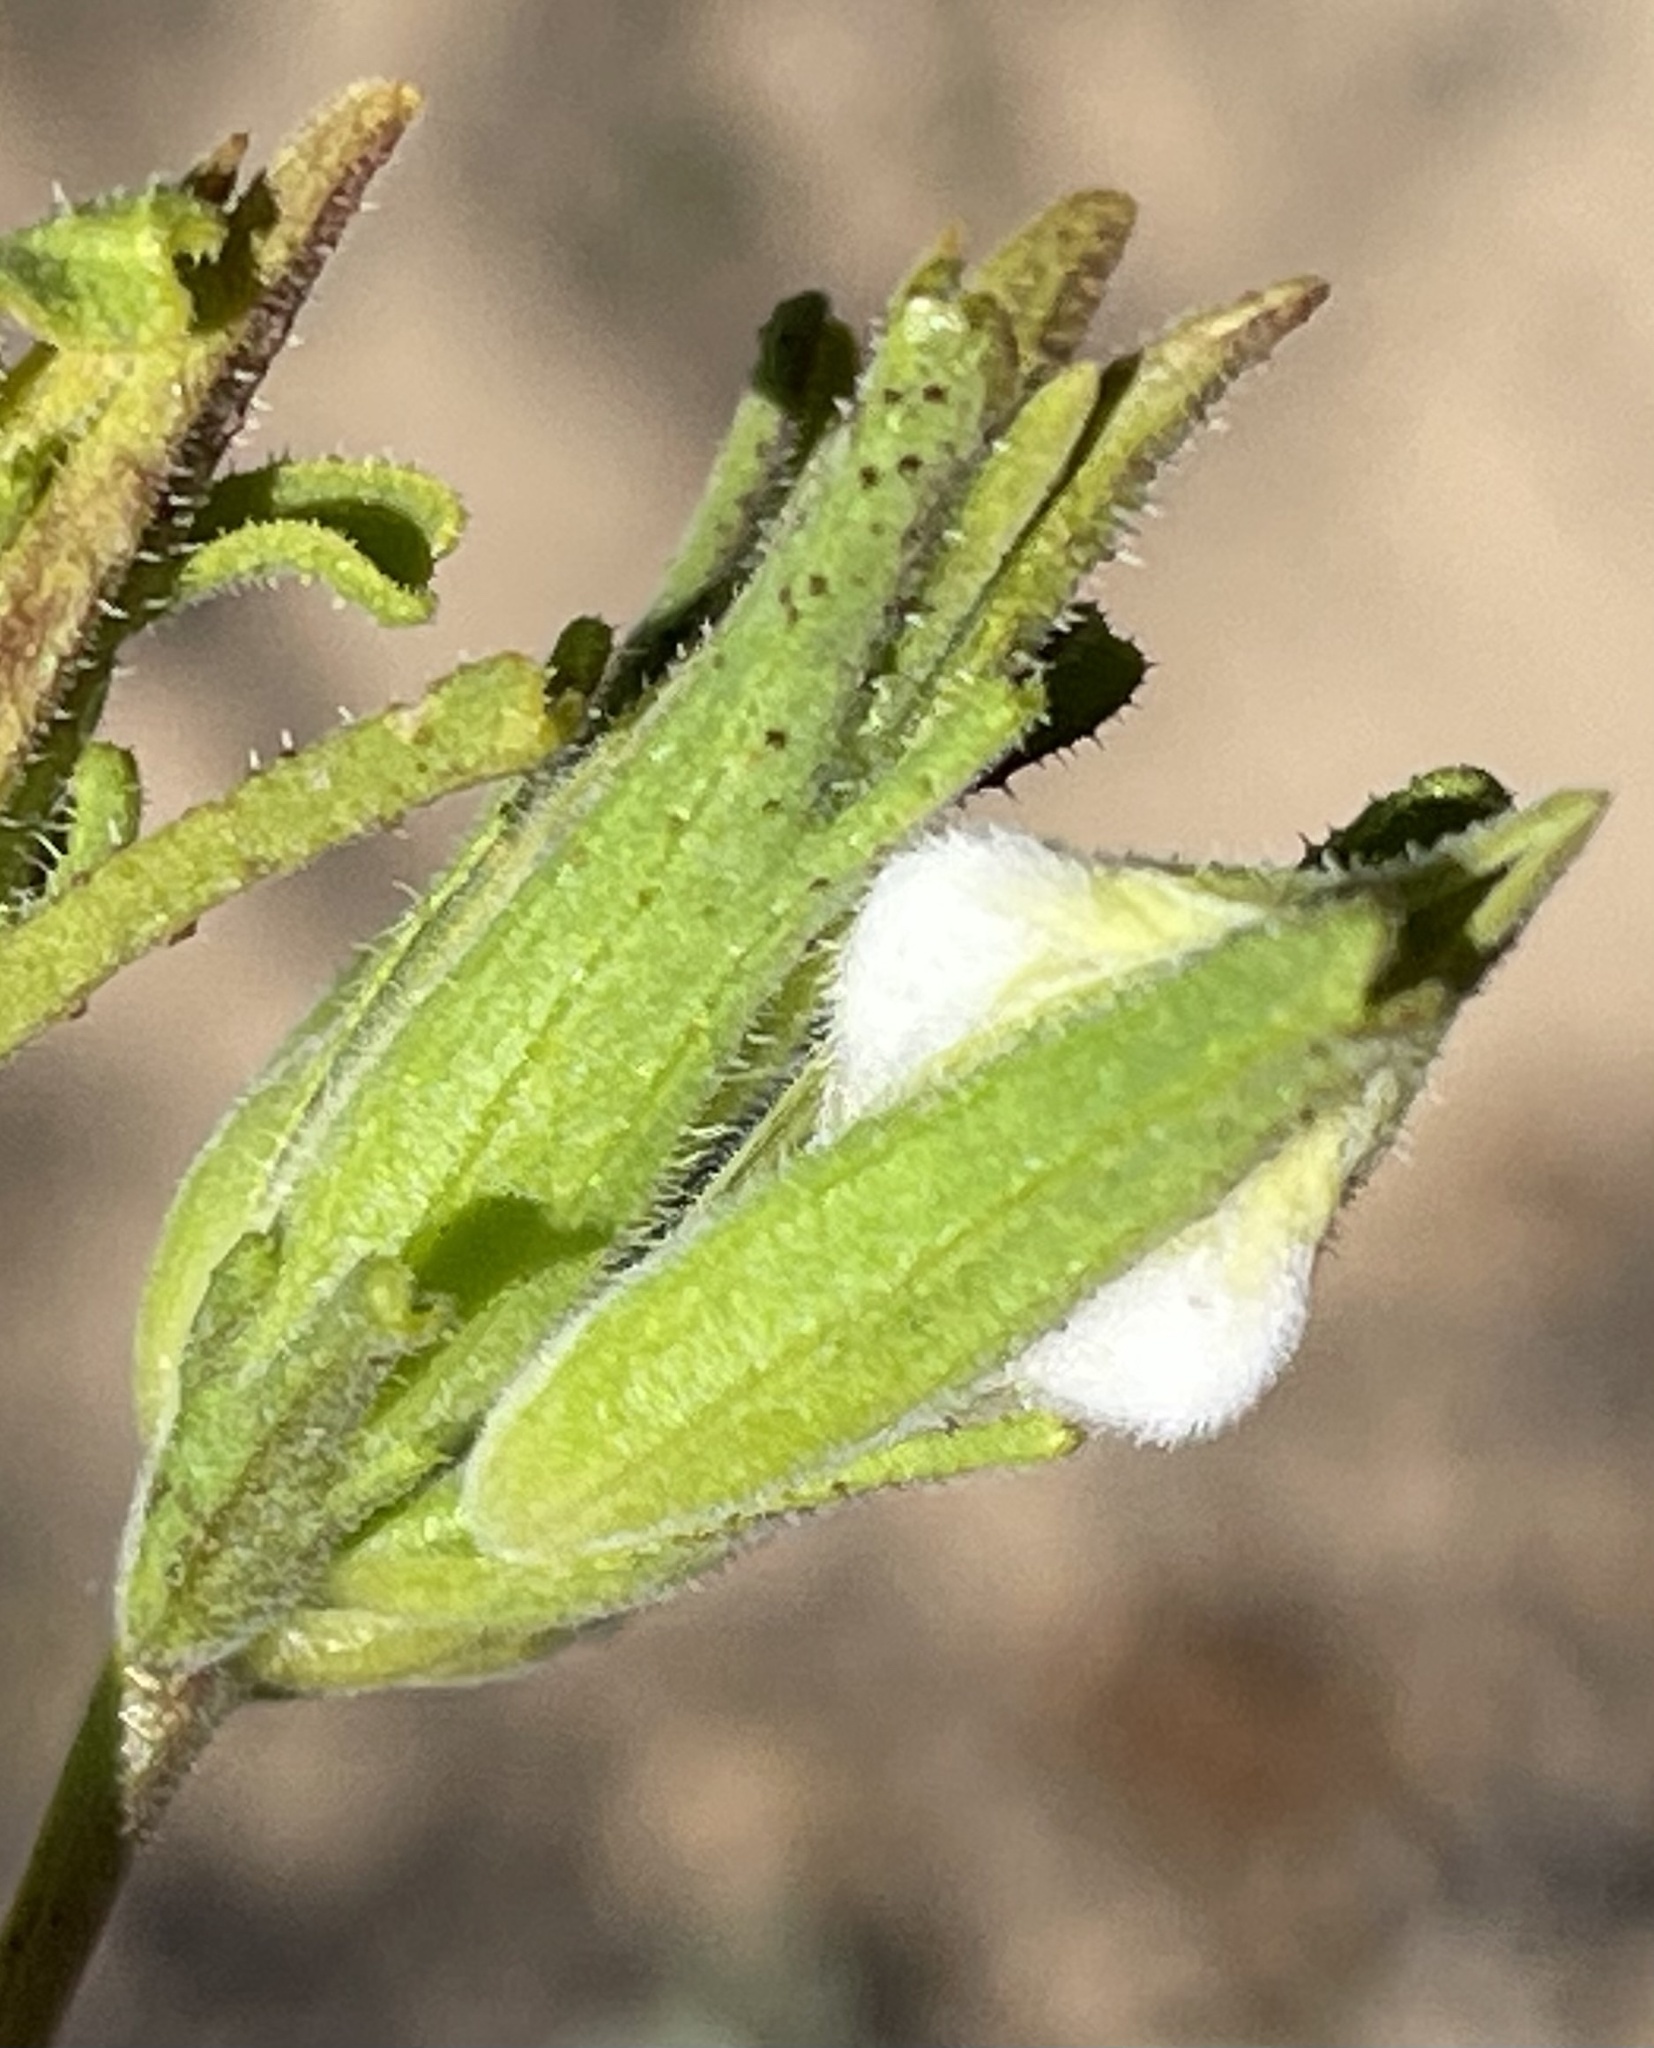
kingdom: Plantae
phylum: Tracheophyta
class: Magnoliopsida
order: Lamiales
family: Orobanchaceae
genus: Cordylanthus
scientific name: Cordylanthus rigidus
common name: Stiff-branch bird's-beak
